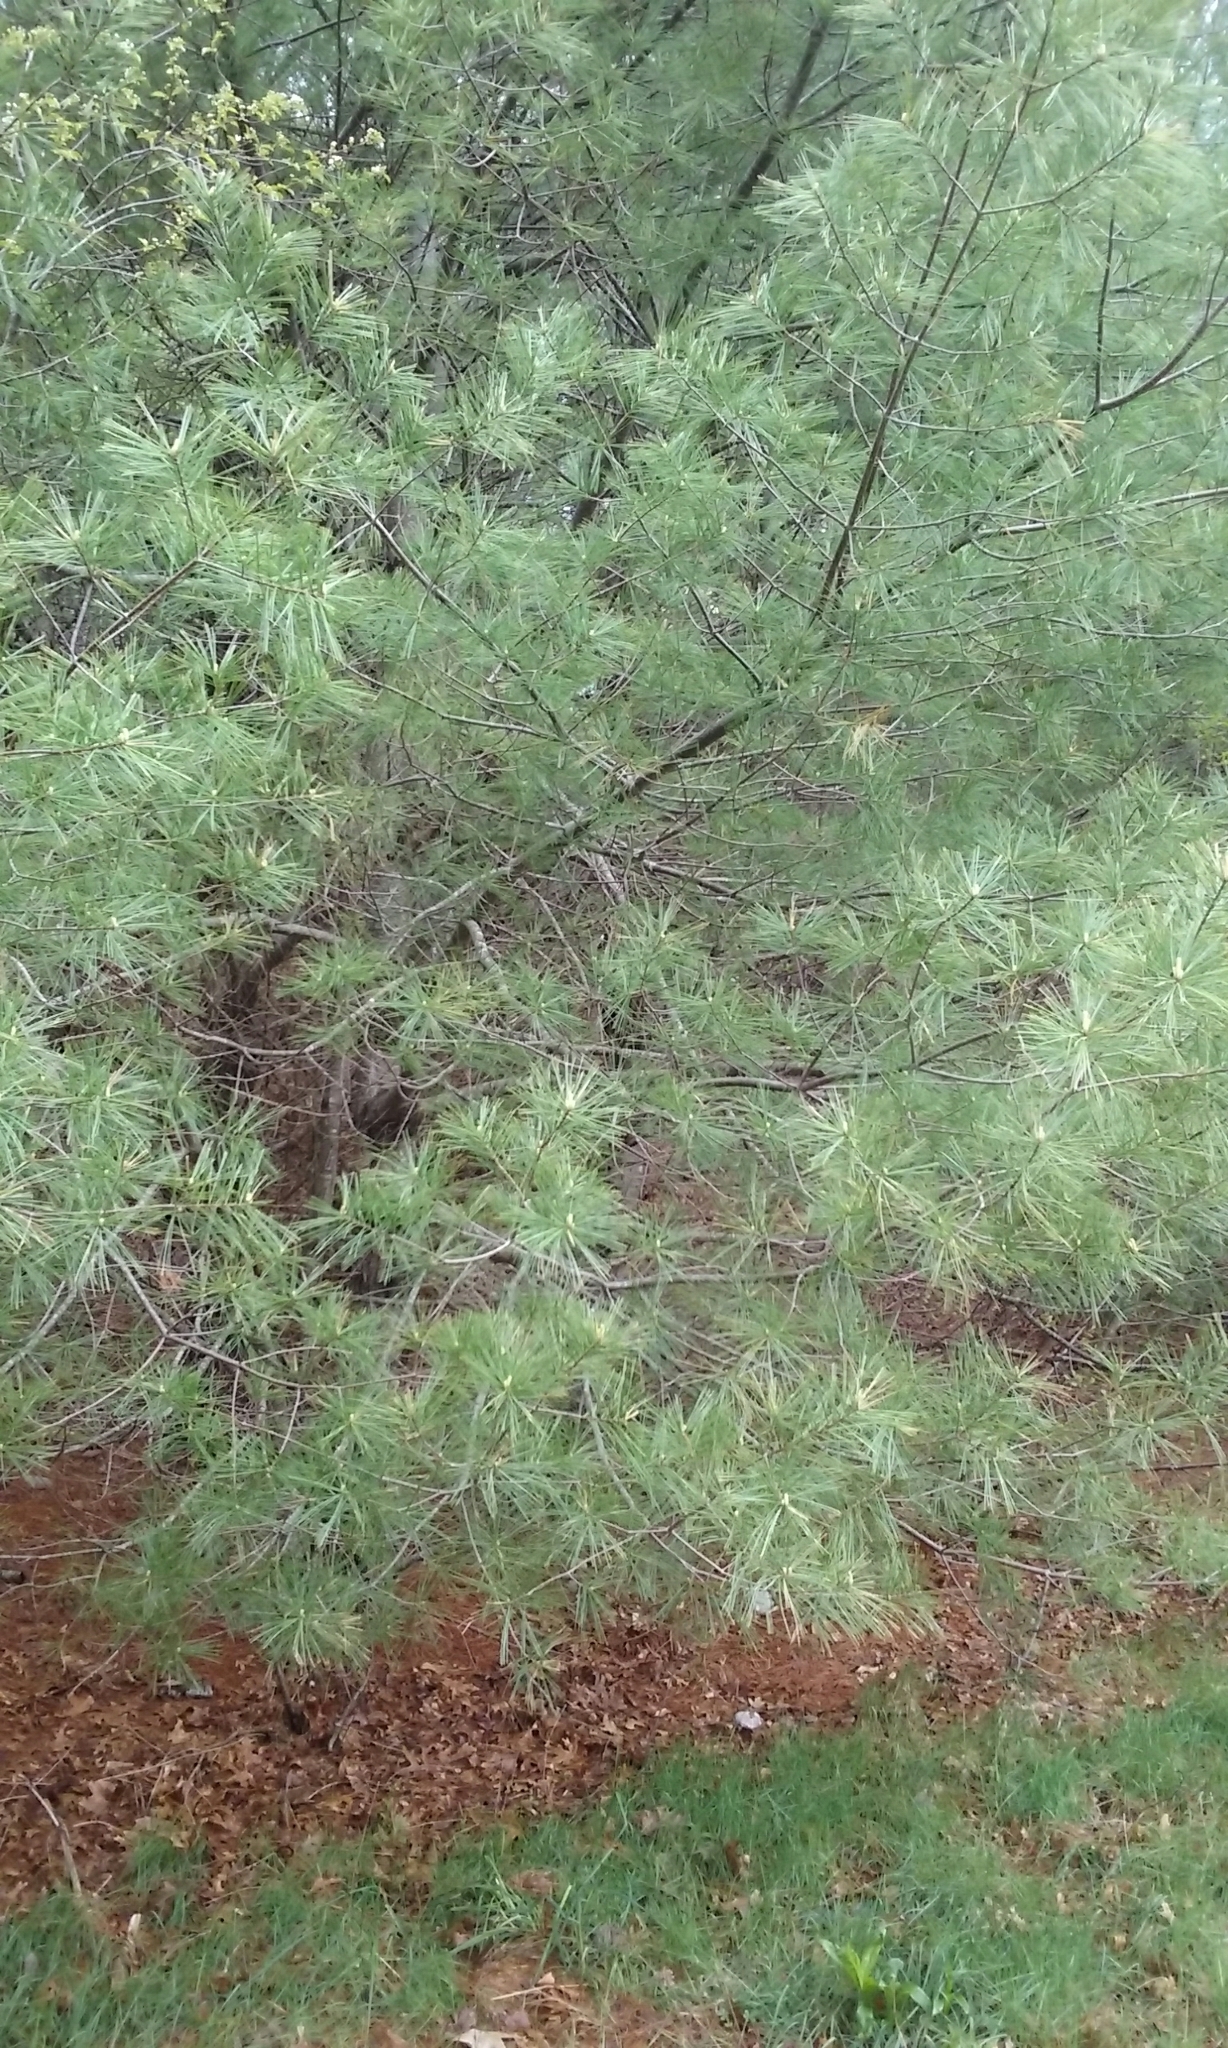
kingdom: Plantae
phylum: Tracheophyta
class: Pinopsida
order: Pinales
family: Pinaceae
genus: Pinus
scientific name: Pinus strobus
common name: Weymouth pine
